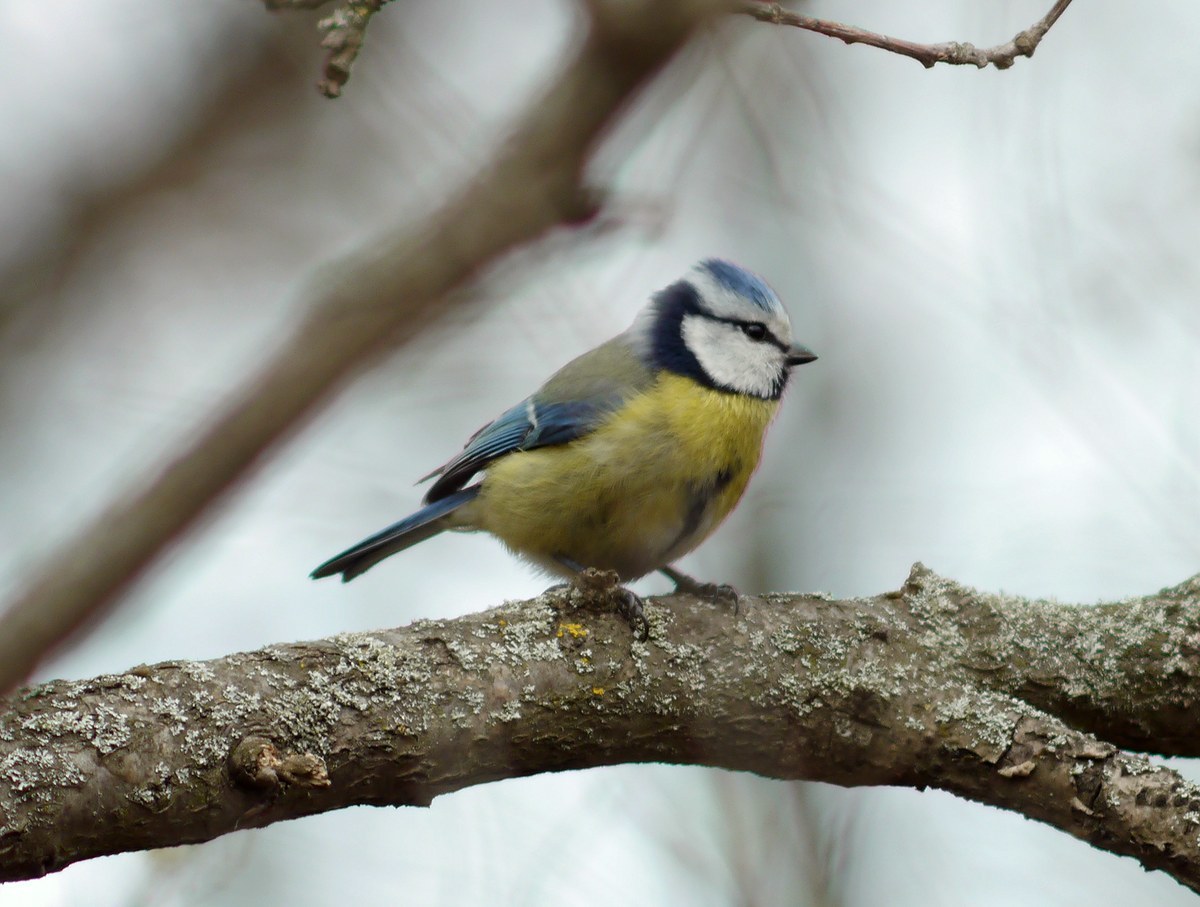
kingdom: Animalia
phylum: Chordata
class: Aves
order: Passeriformes
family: Paridae
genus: Cyanistes
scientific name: Cyanistes caeruleus
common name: Eurasian blue tit
